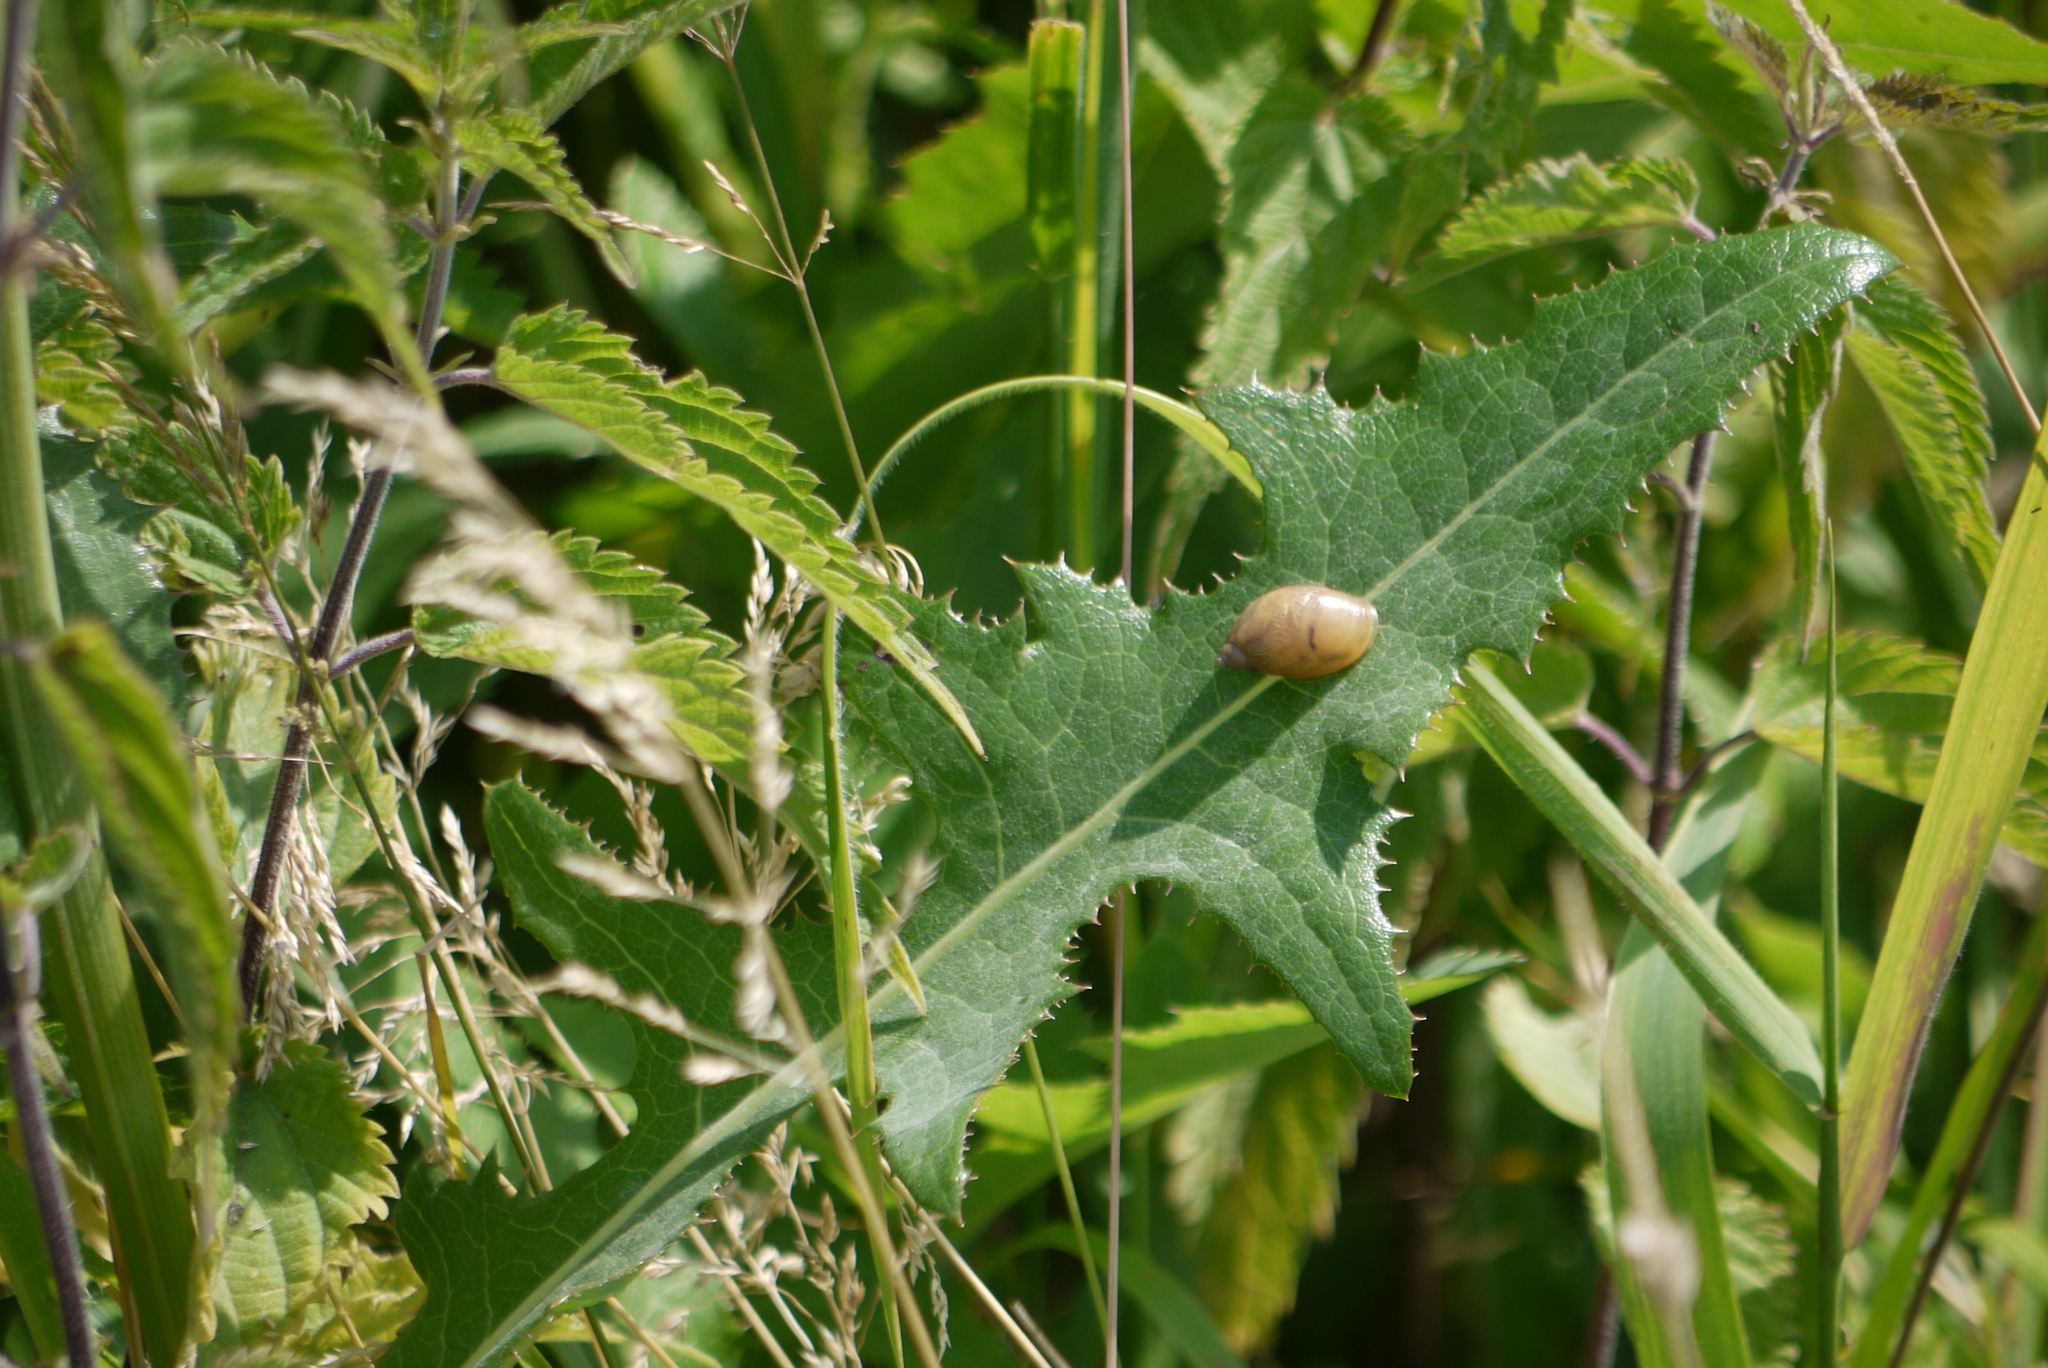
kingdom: Plantae
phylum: Tracheophyta
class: Magnoliopsida
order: Asterales
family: Asteraceae
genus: Sonchus
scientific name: Sonchus arvensis
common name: Perennial sow-thistle
